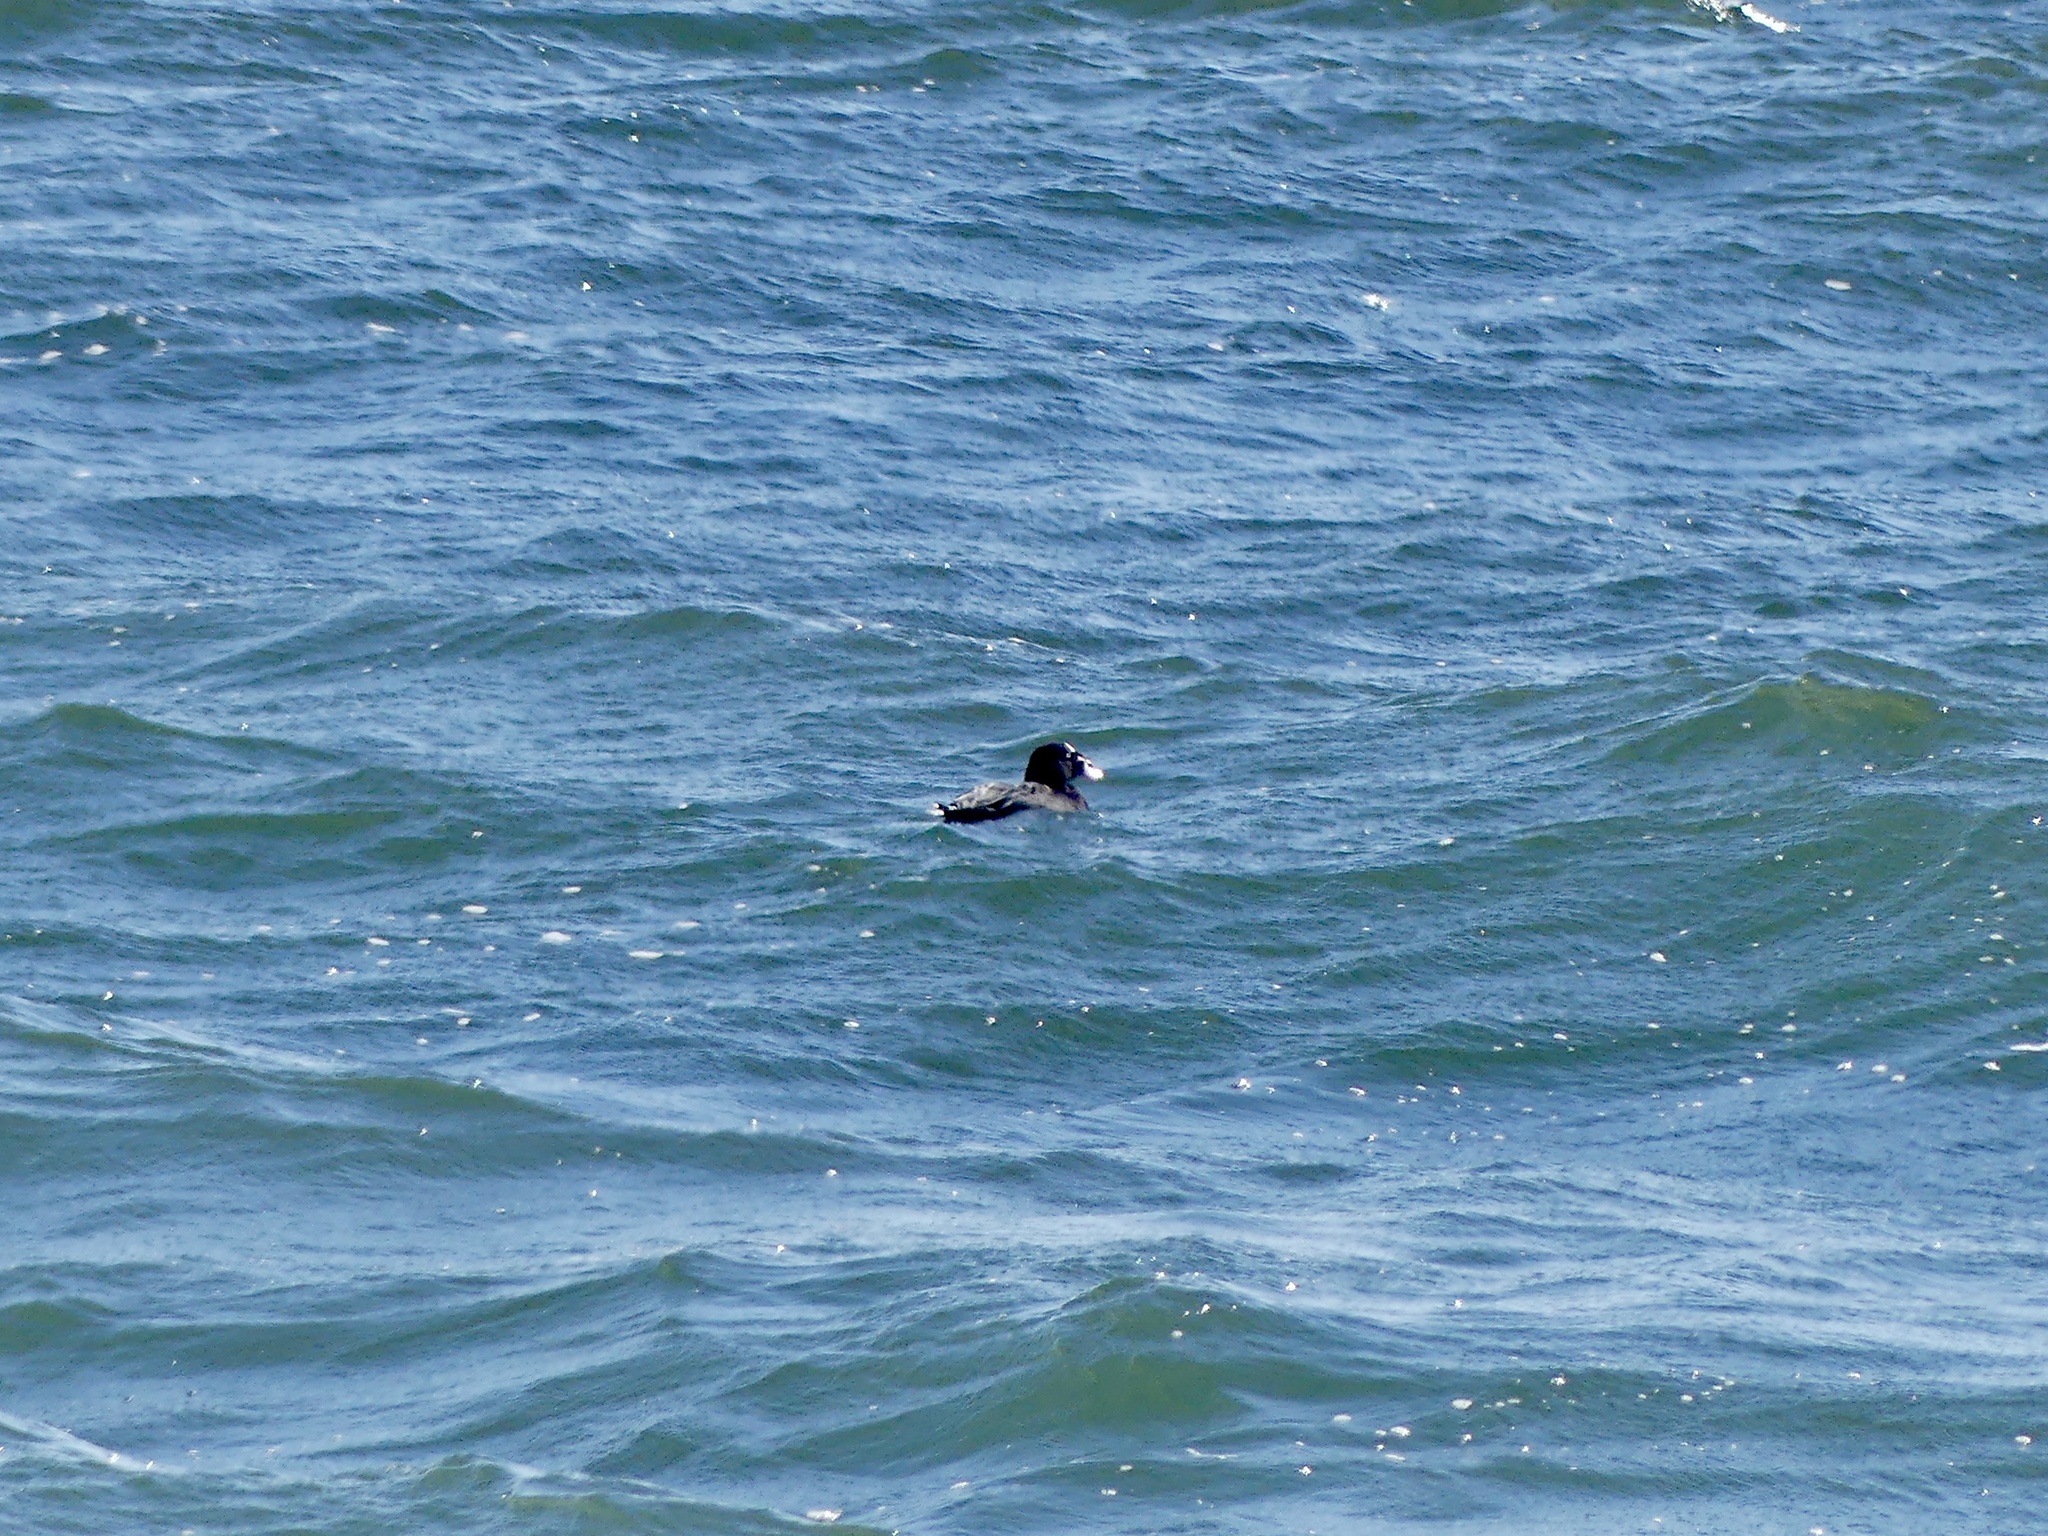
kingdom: Animalia
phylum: Chordata
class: Aves
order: Anseriformes
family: Anatidae
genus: Melanitta
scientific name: Melanitta perspicillata
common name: Surf scoter
